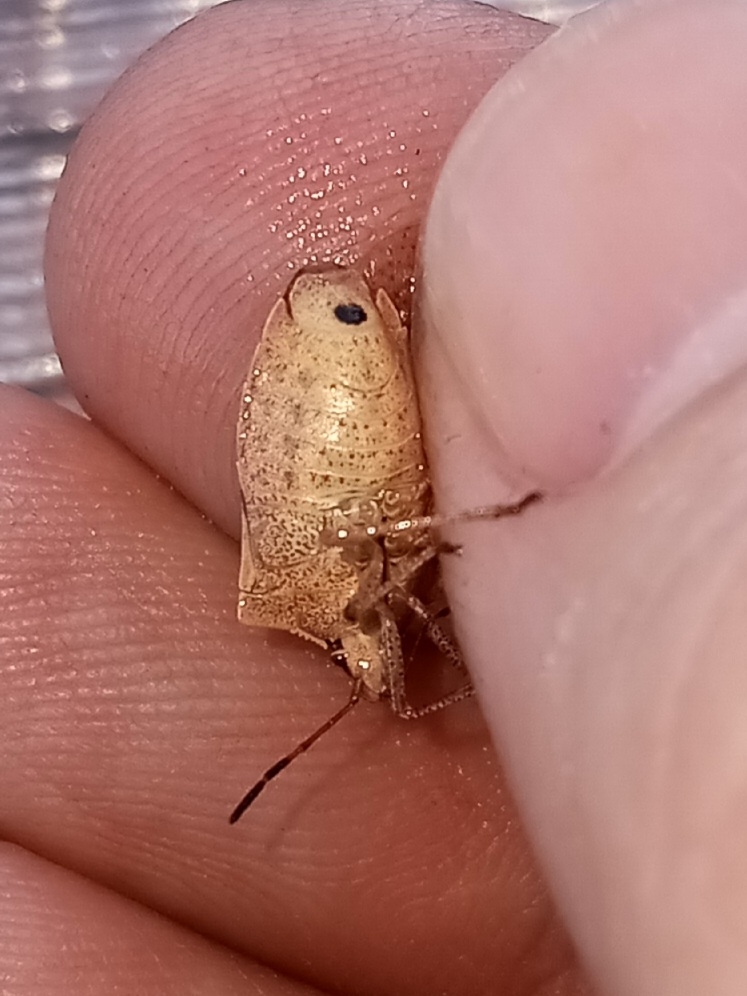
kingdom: Animalia
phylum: Arthropoda
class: Insecta
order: Hemiptera
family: Pentatomidae
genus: Euschistus
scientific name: Euschistus variolarius
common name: Onespotted stink bug
